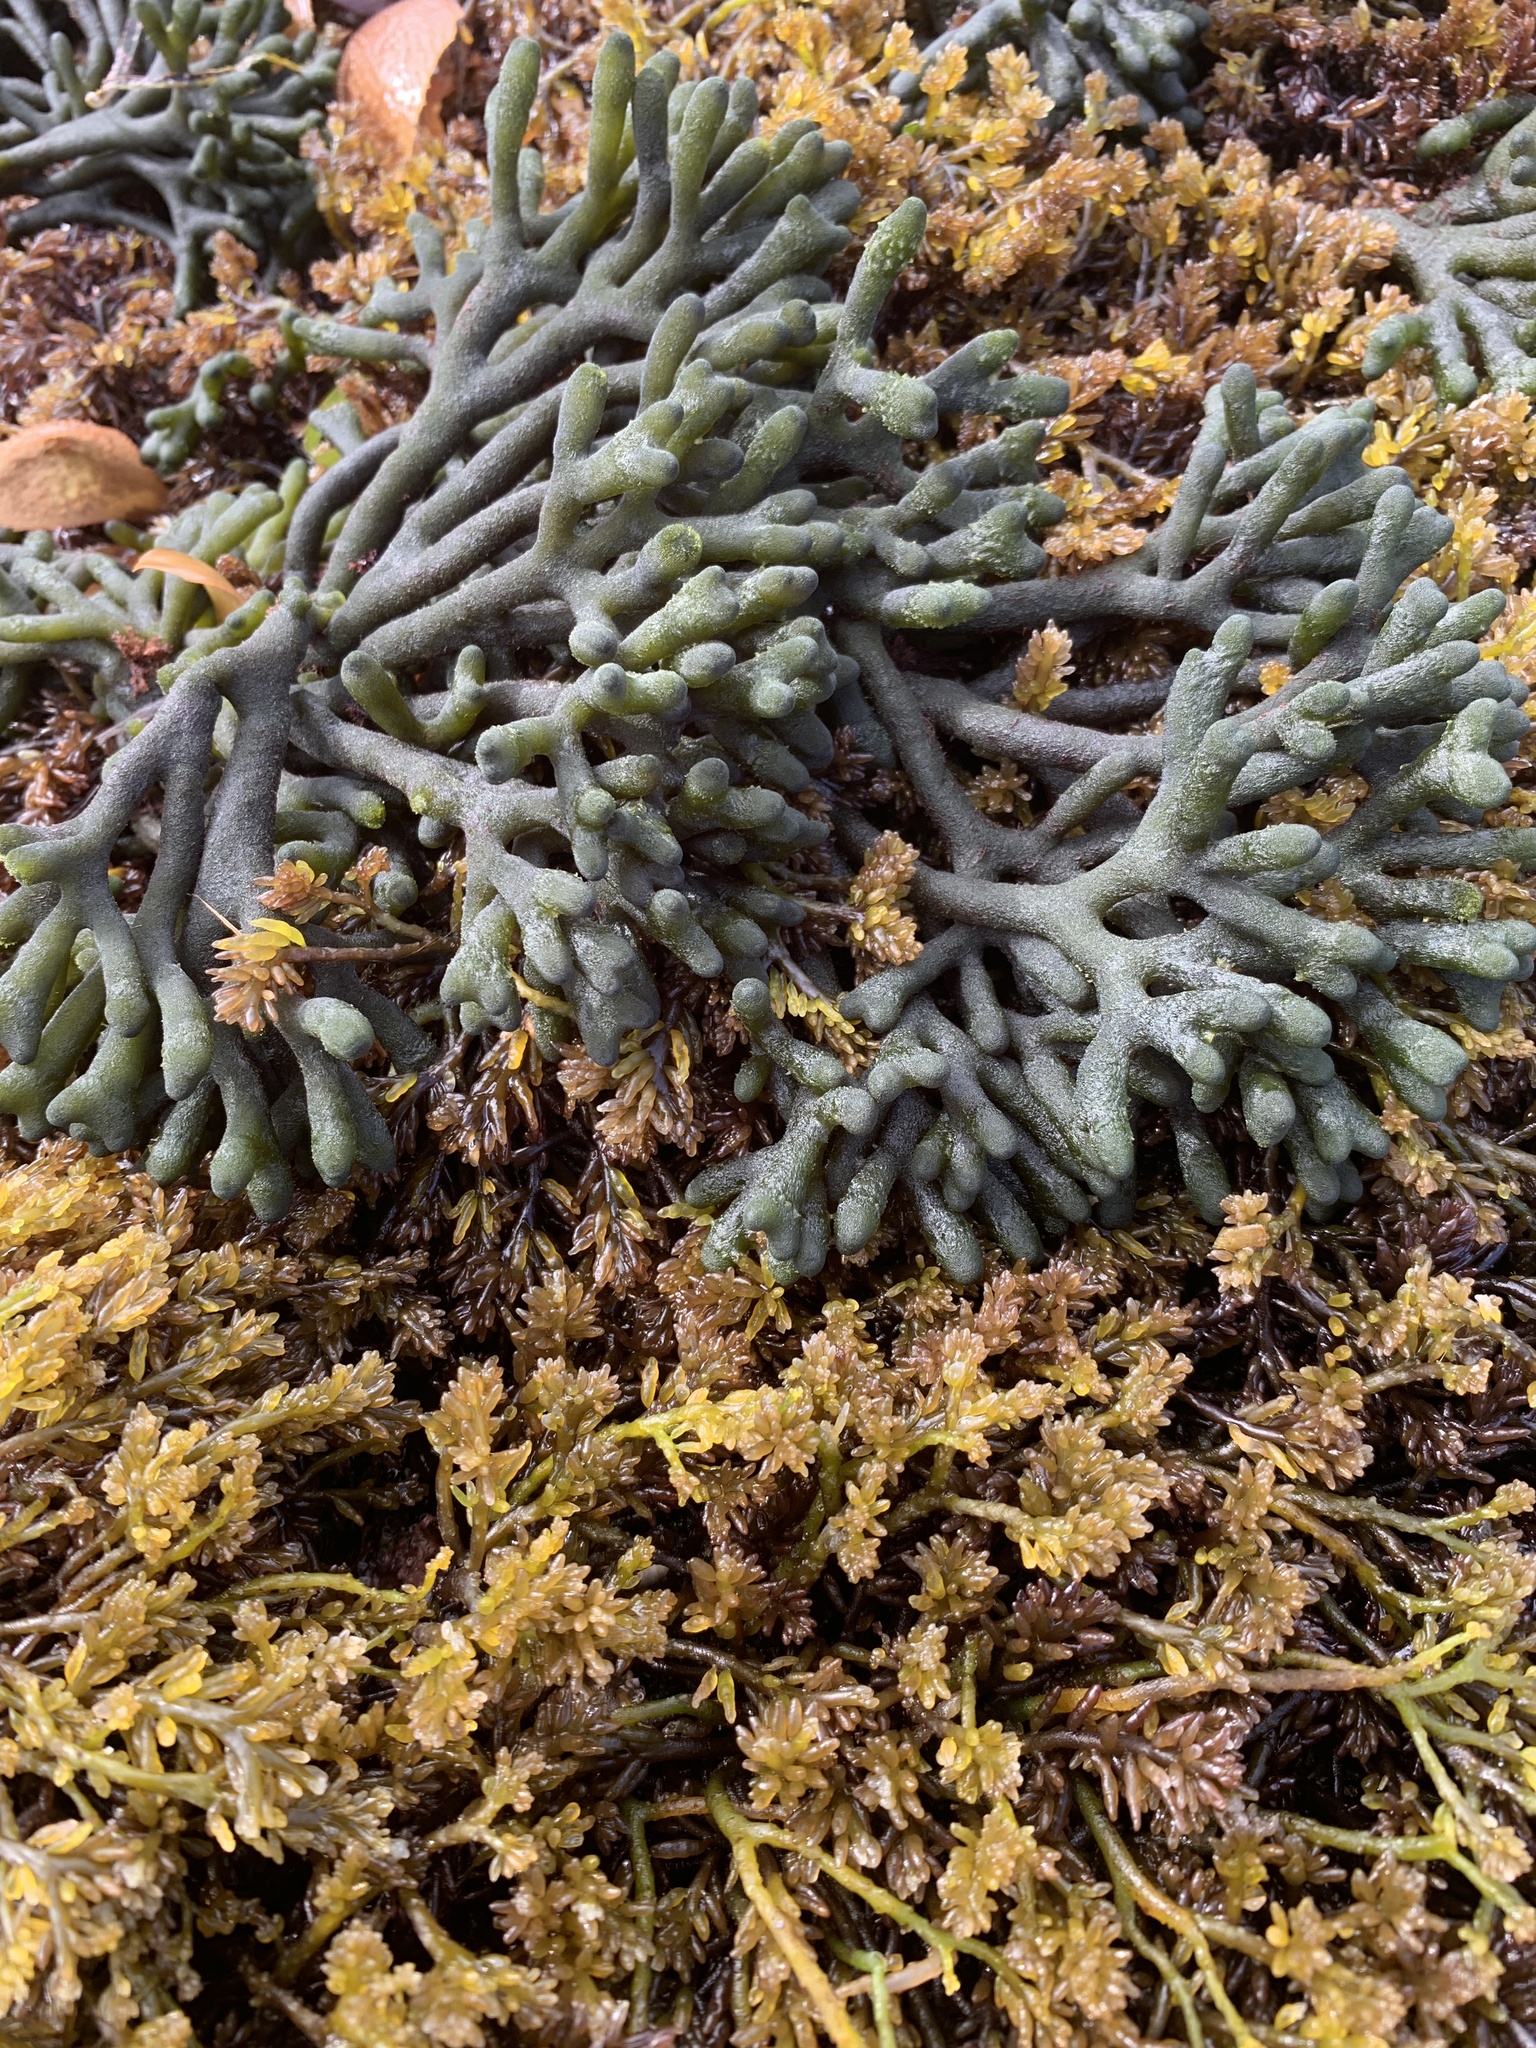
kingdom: Plantae
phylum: Chlorophyta
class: Ulvophyceae
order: Bryopsidales
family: Codiaceae
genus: Codium
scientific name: Codium fragile
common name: Dead man's fingers
